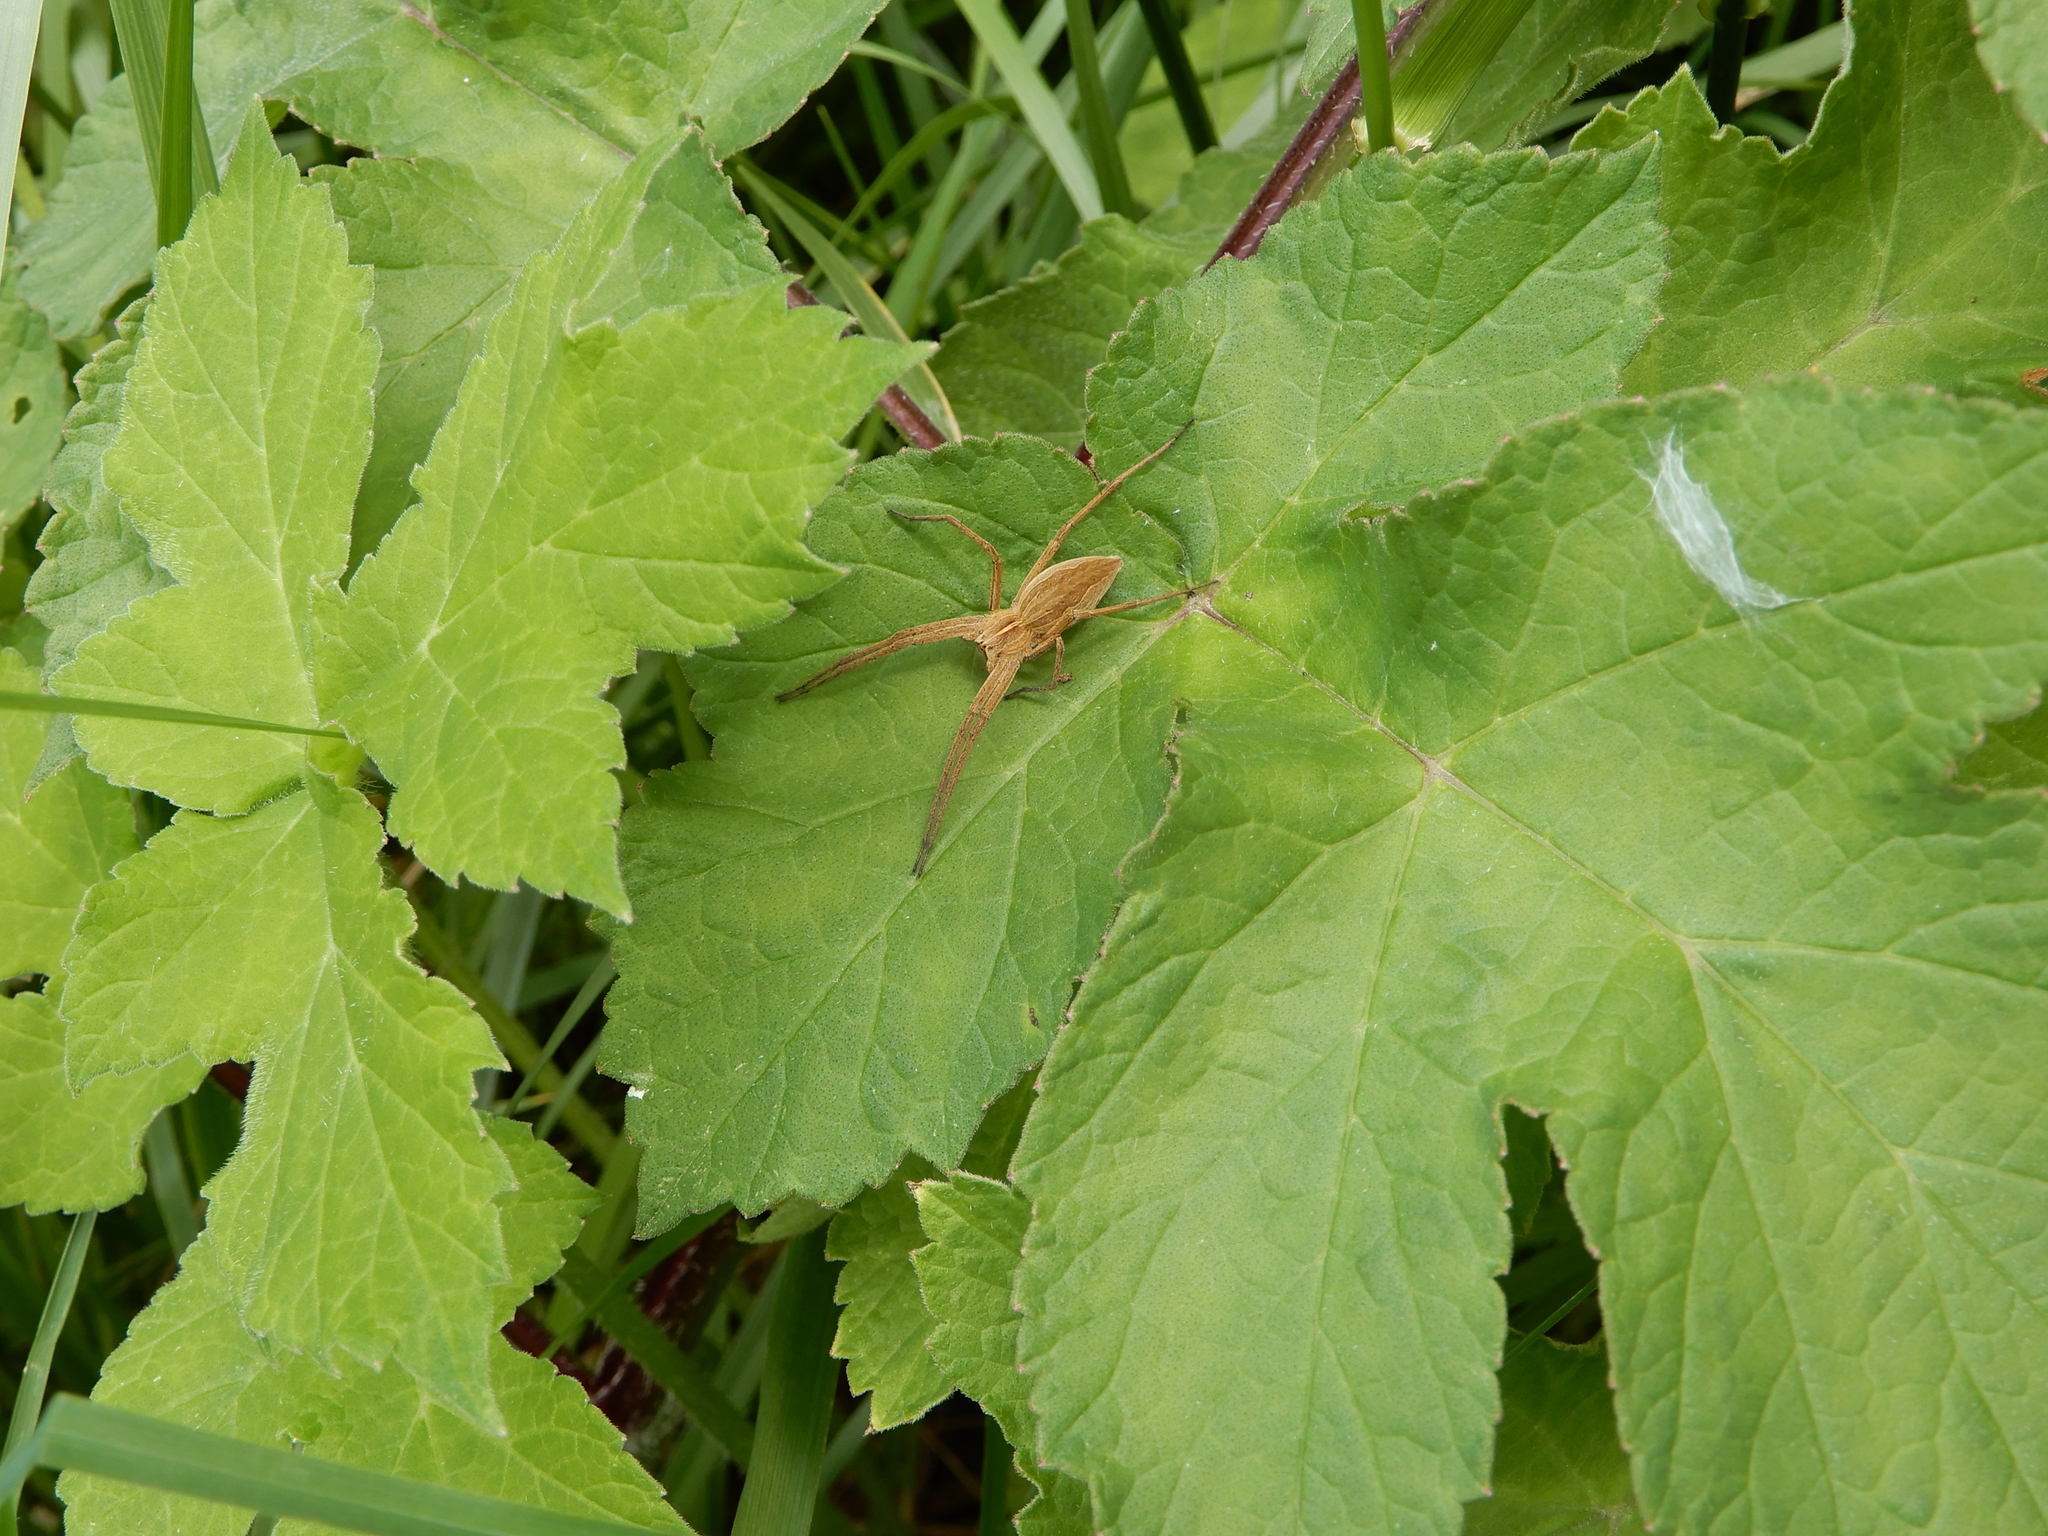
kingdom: Animalia
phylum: Arthropoda
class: Arachnida
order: Araneae
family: Pisauridae
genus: Pisaura
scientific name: Pisaura mirabilis
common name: Tent spider
